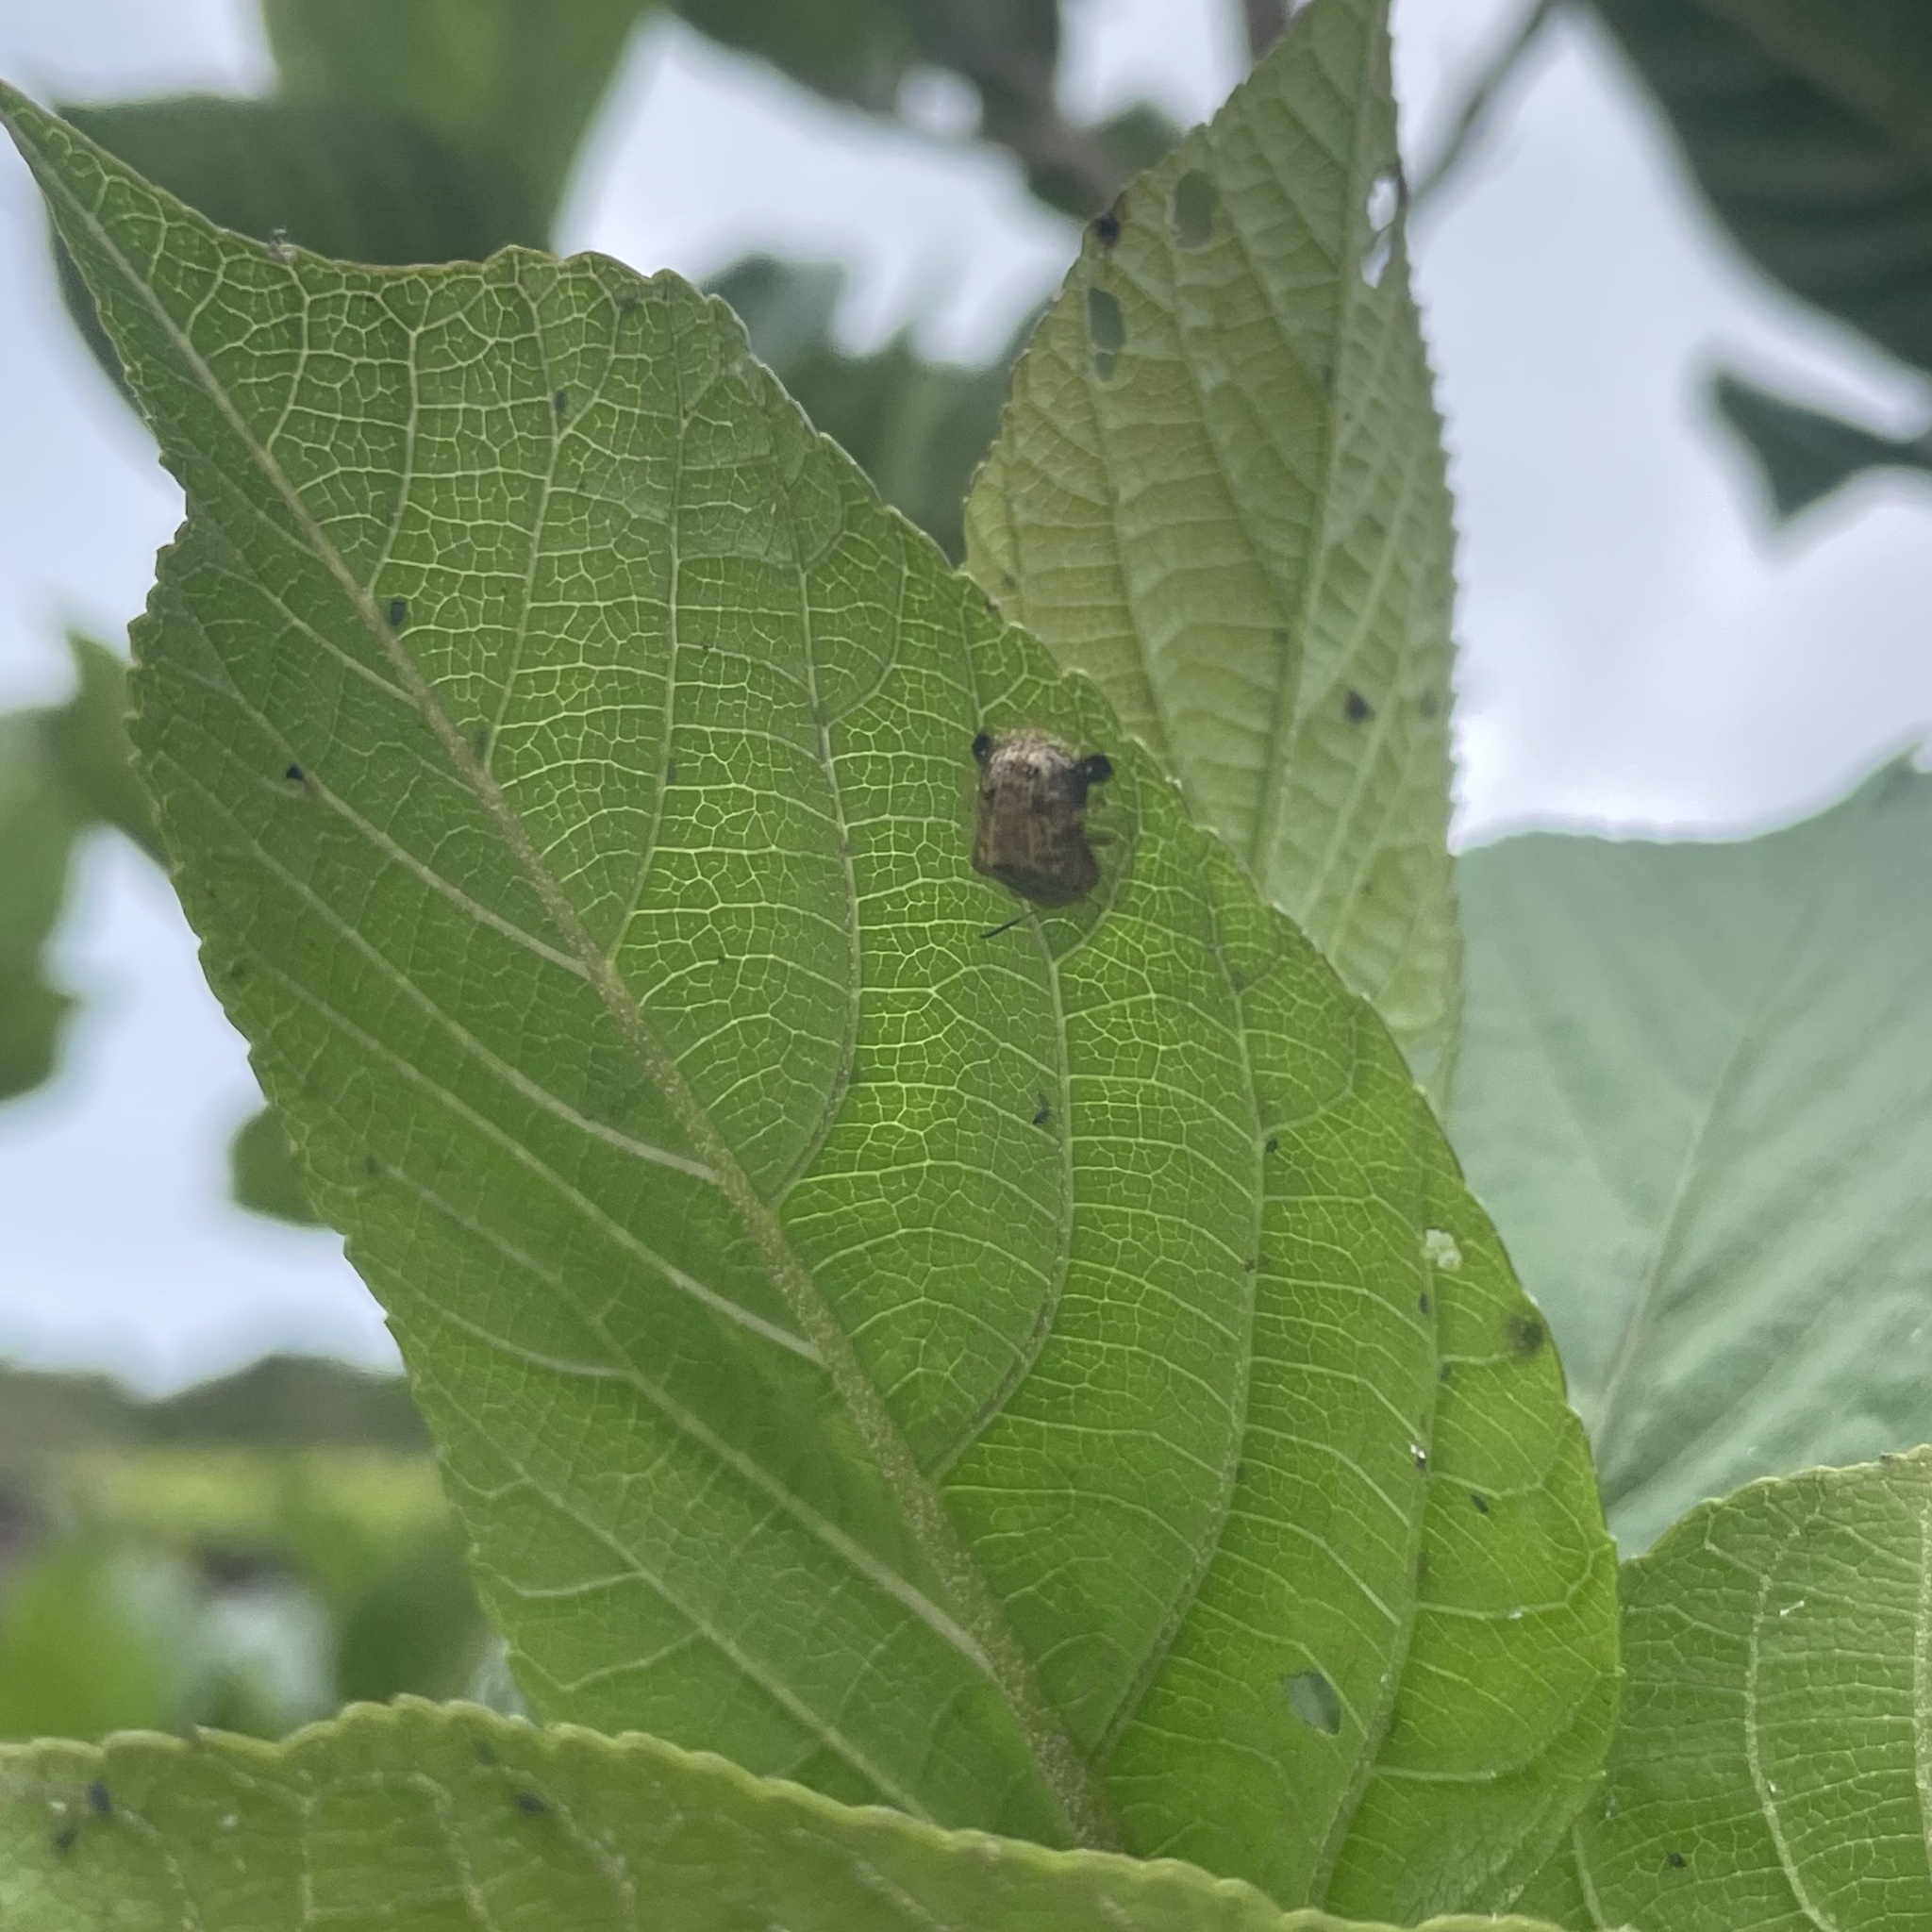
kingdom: Animalia
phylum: Arthropoda
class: Insecta
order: Coleoptera
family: Chrysomelidae
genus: Thlaspida
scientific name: Thlaspida biramosa
